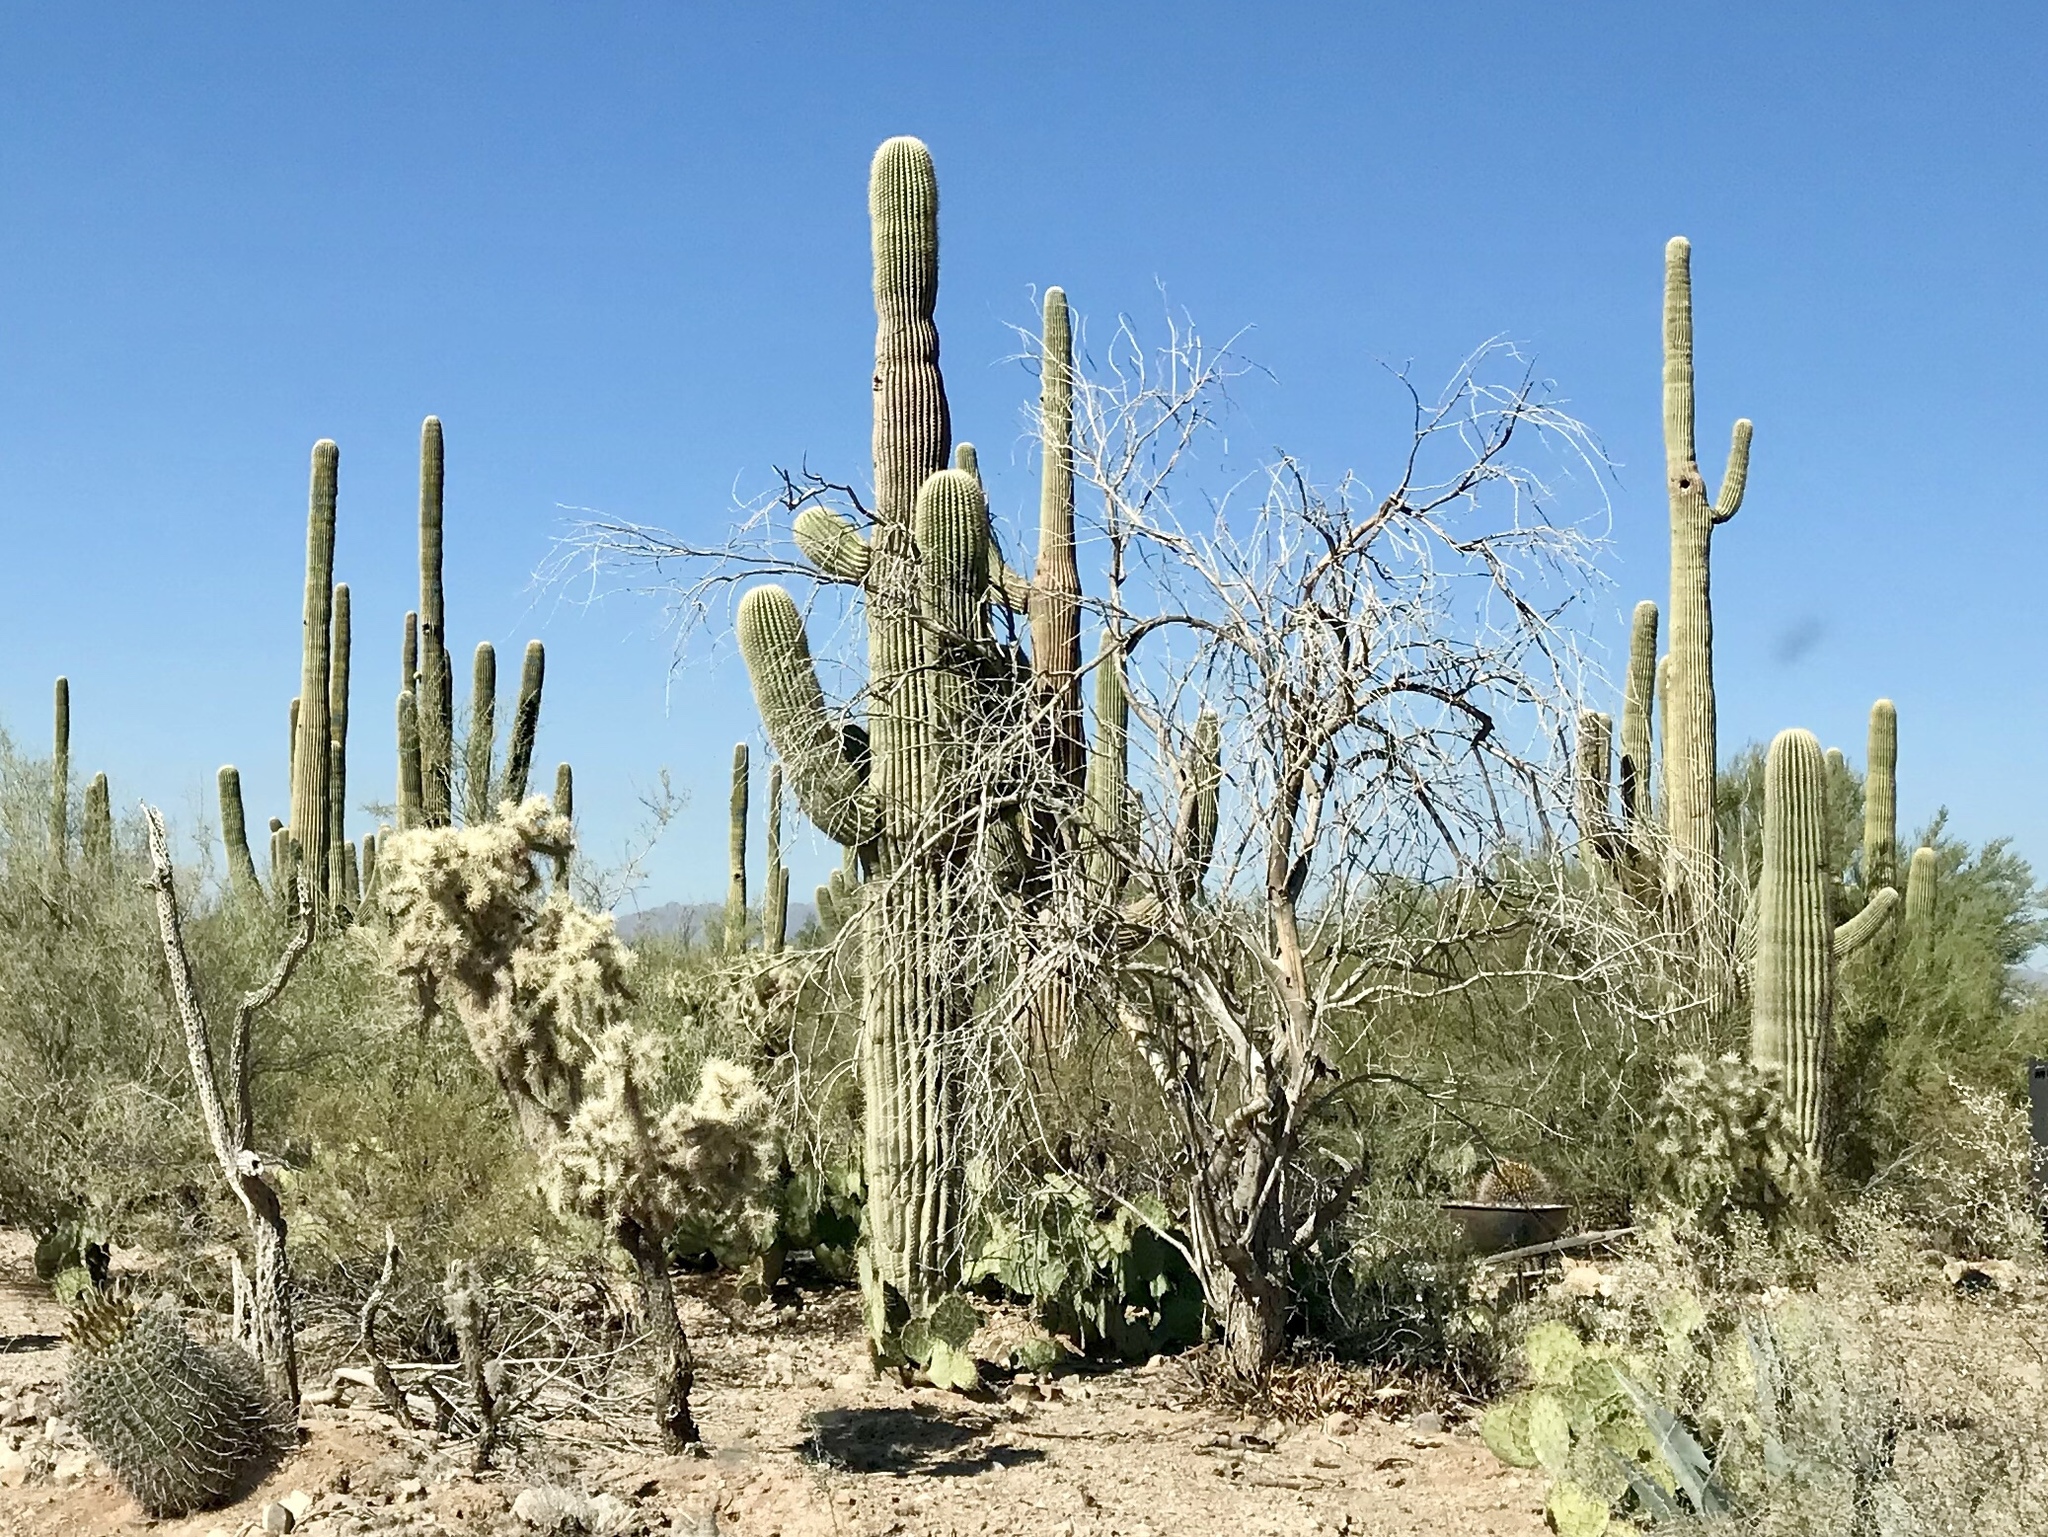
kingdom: Plantae
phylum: Tracheophyta
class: Magnoliopsida
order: Caryophyllales
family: Cactaceae
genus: Carnegiea
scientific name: Carnegiea gigantea
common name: Saguaro
